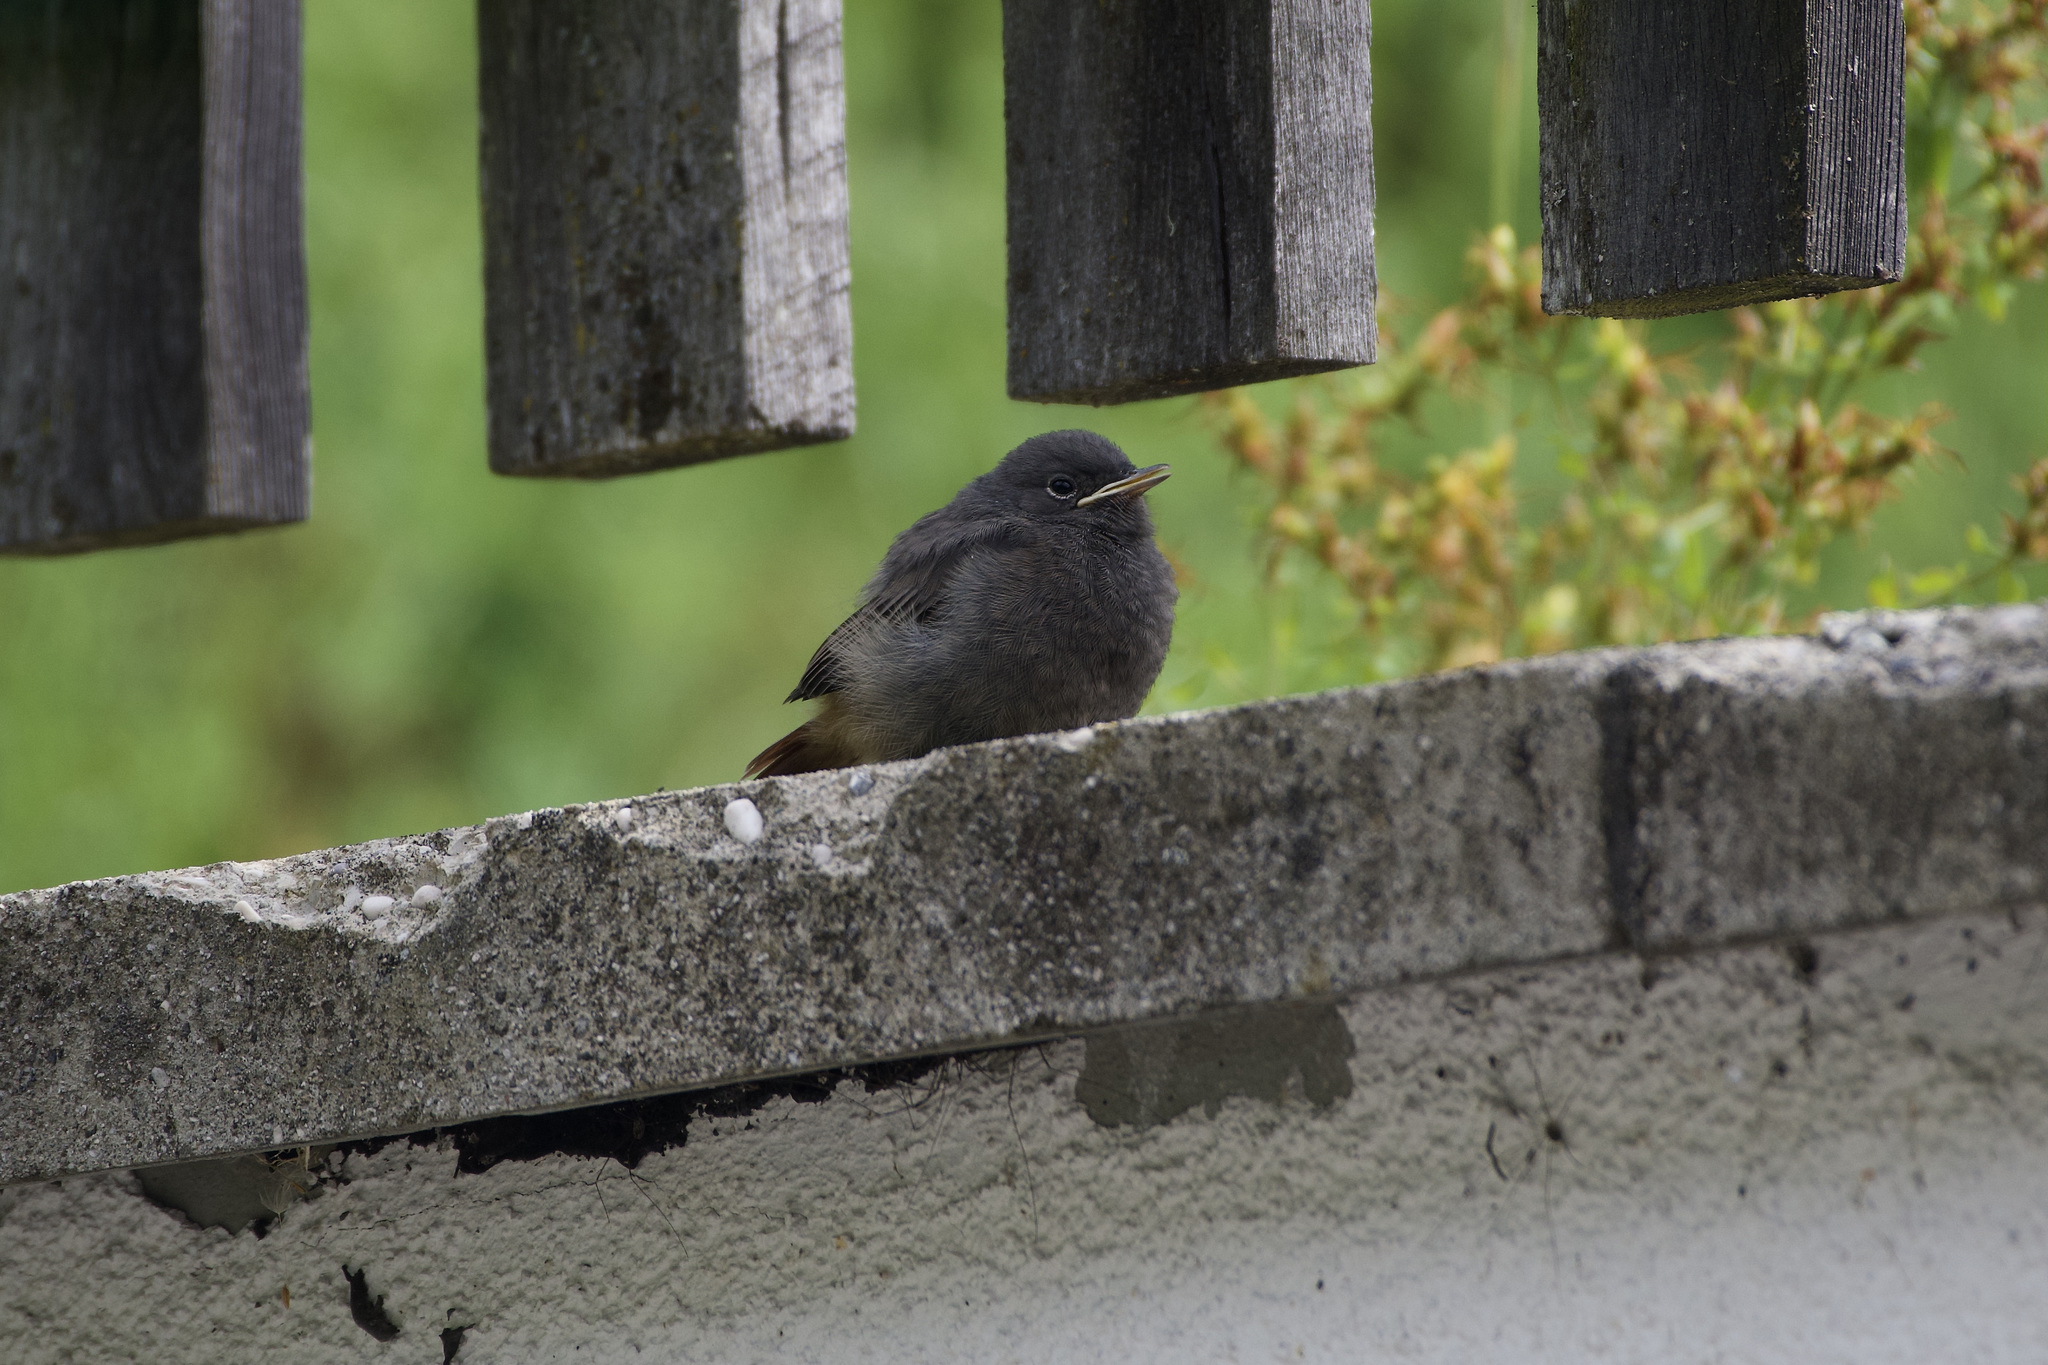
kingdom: Animalia
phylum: Chordata
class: Aves
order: Passeriformes
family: Muscicapidae
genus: Phoenicurus
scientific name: Phoenicurus ochruros
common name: Black redstart
